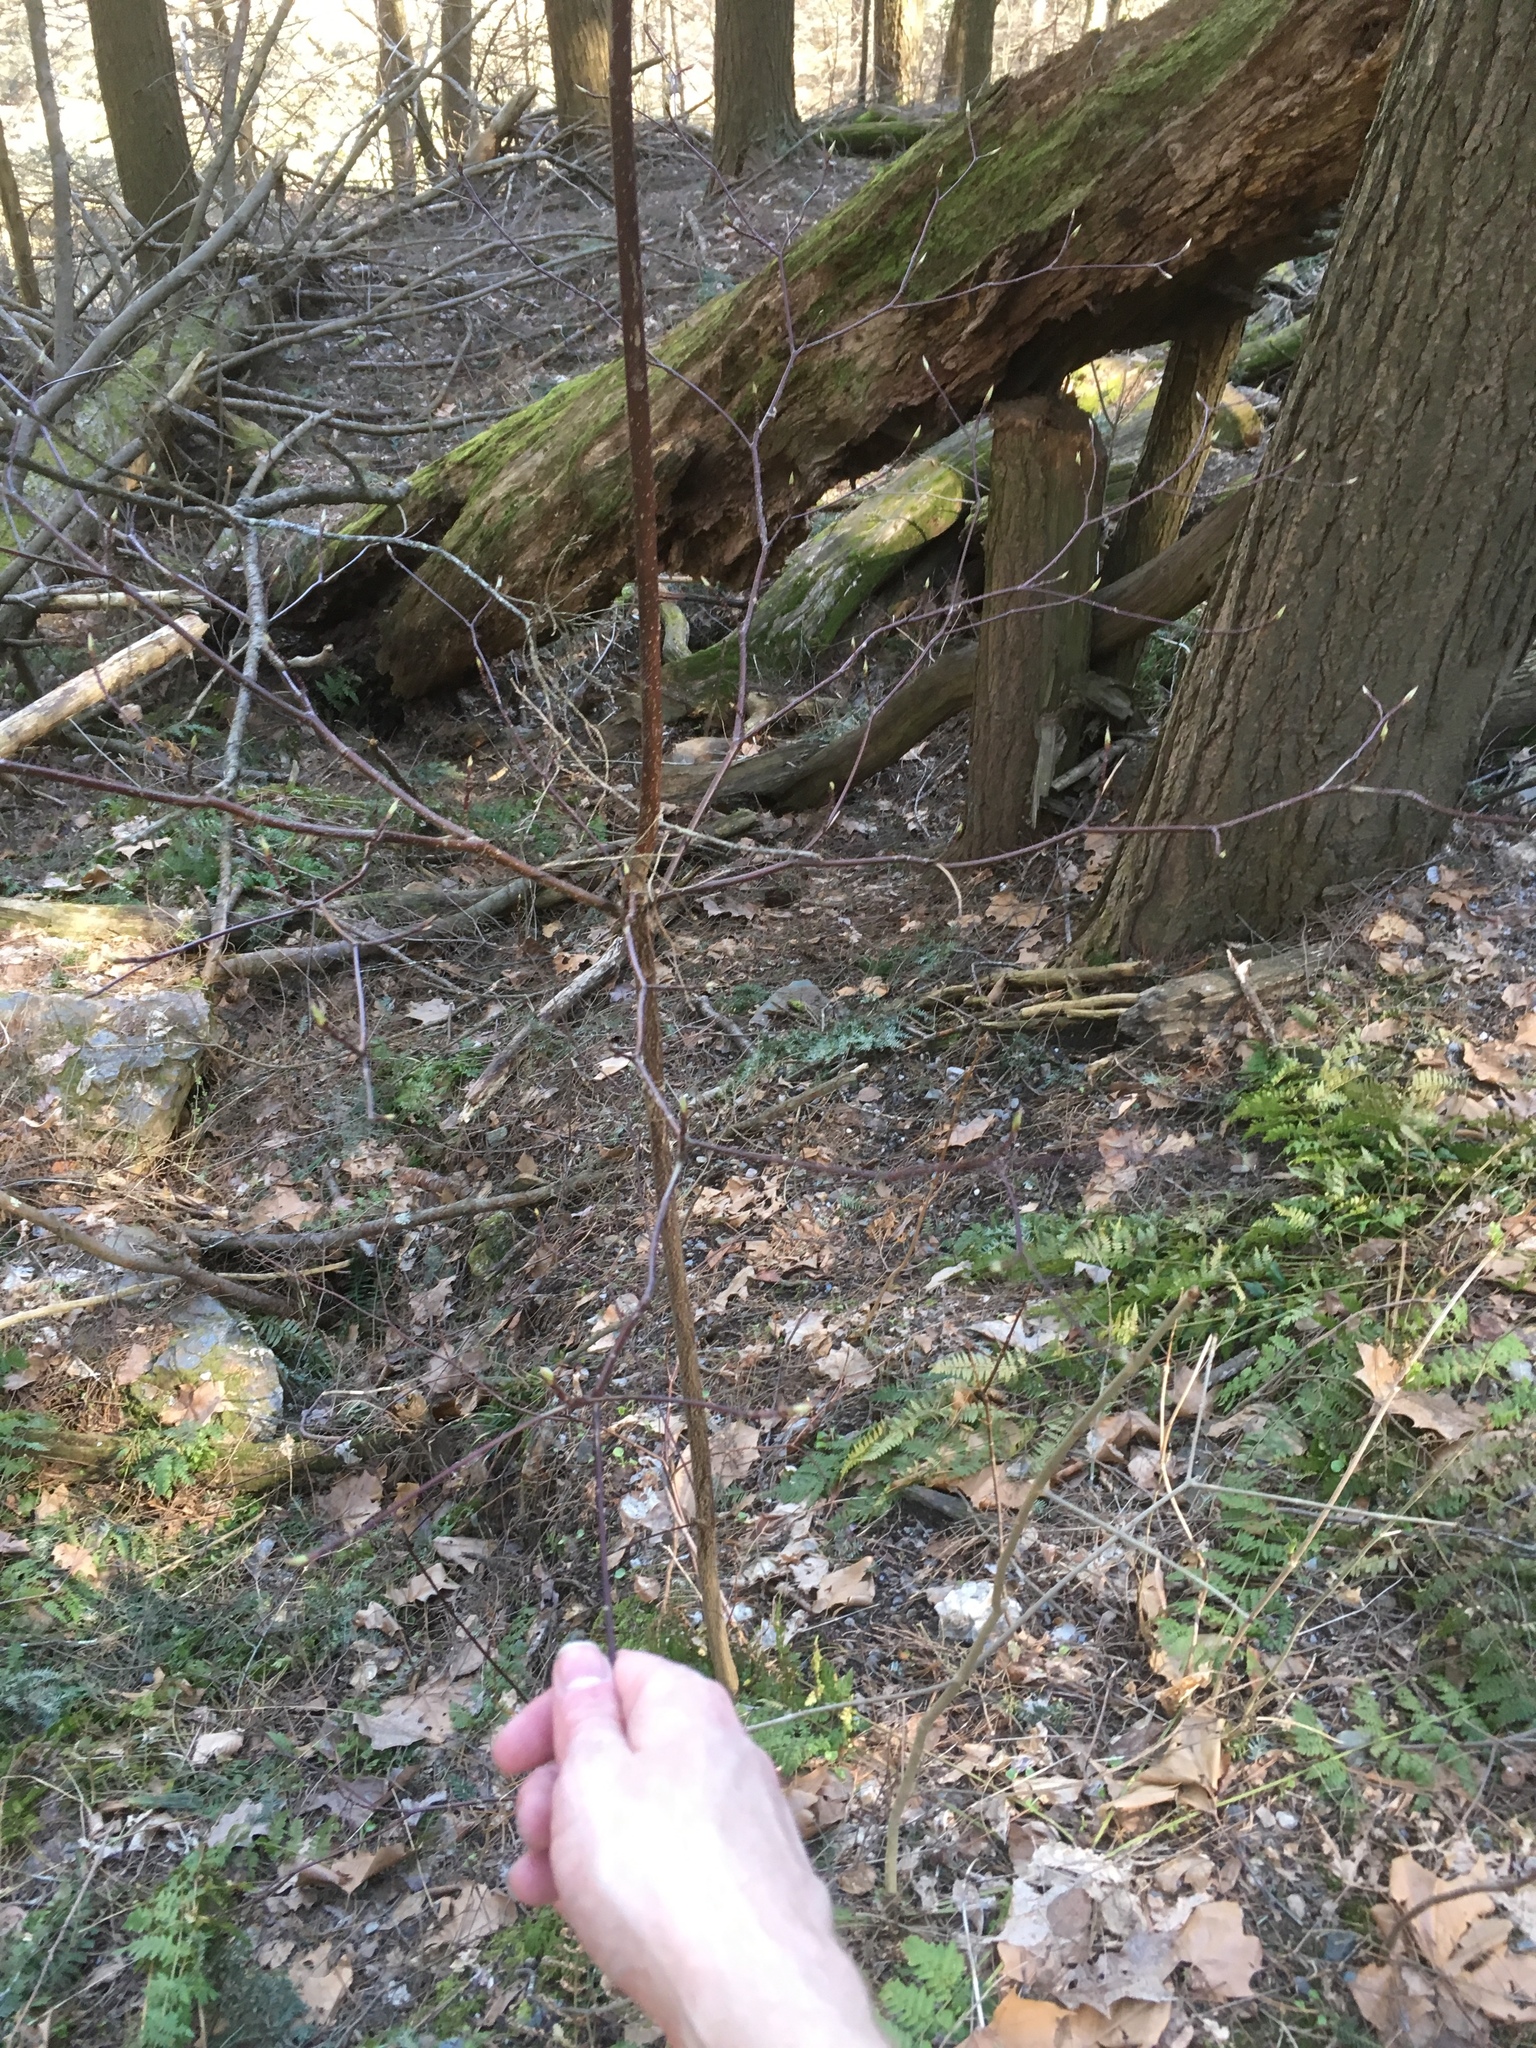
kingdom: Plantae
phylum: Tracheophyta
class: Magnoliopsida
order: Cornales
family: Cornaceae
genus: Cornus
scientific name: Cornus alternifolia
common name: Pagoda dogwood
